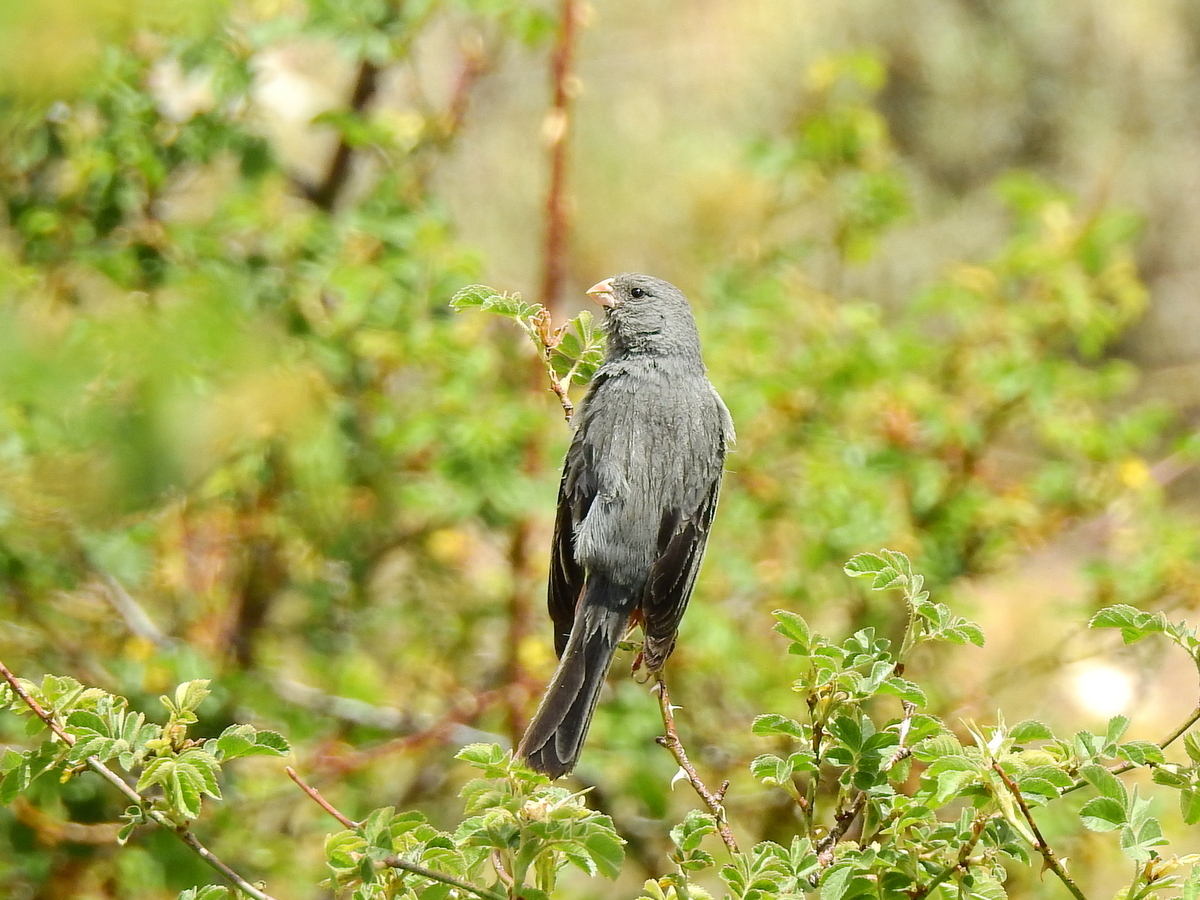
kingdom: Animalia
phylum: Chordata
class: Aves
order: Passeriformes
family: Thraupidae
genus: Catamenia
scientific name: Catamenia analis
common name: Band-tailed seedeater
